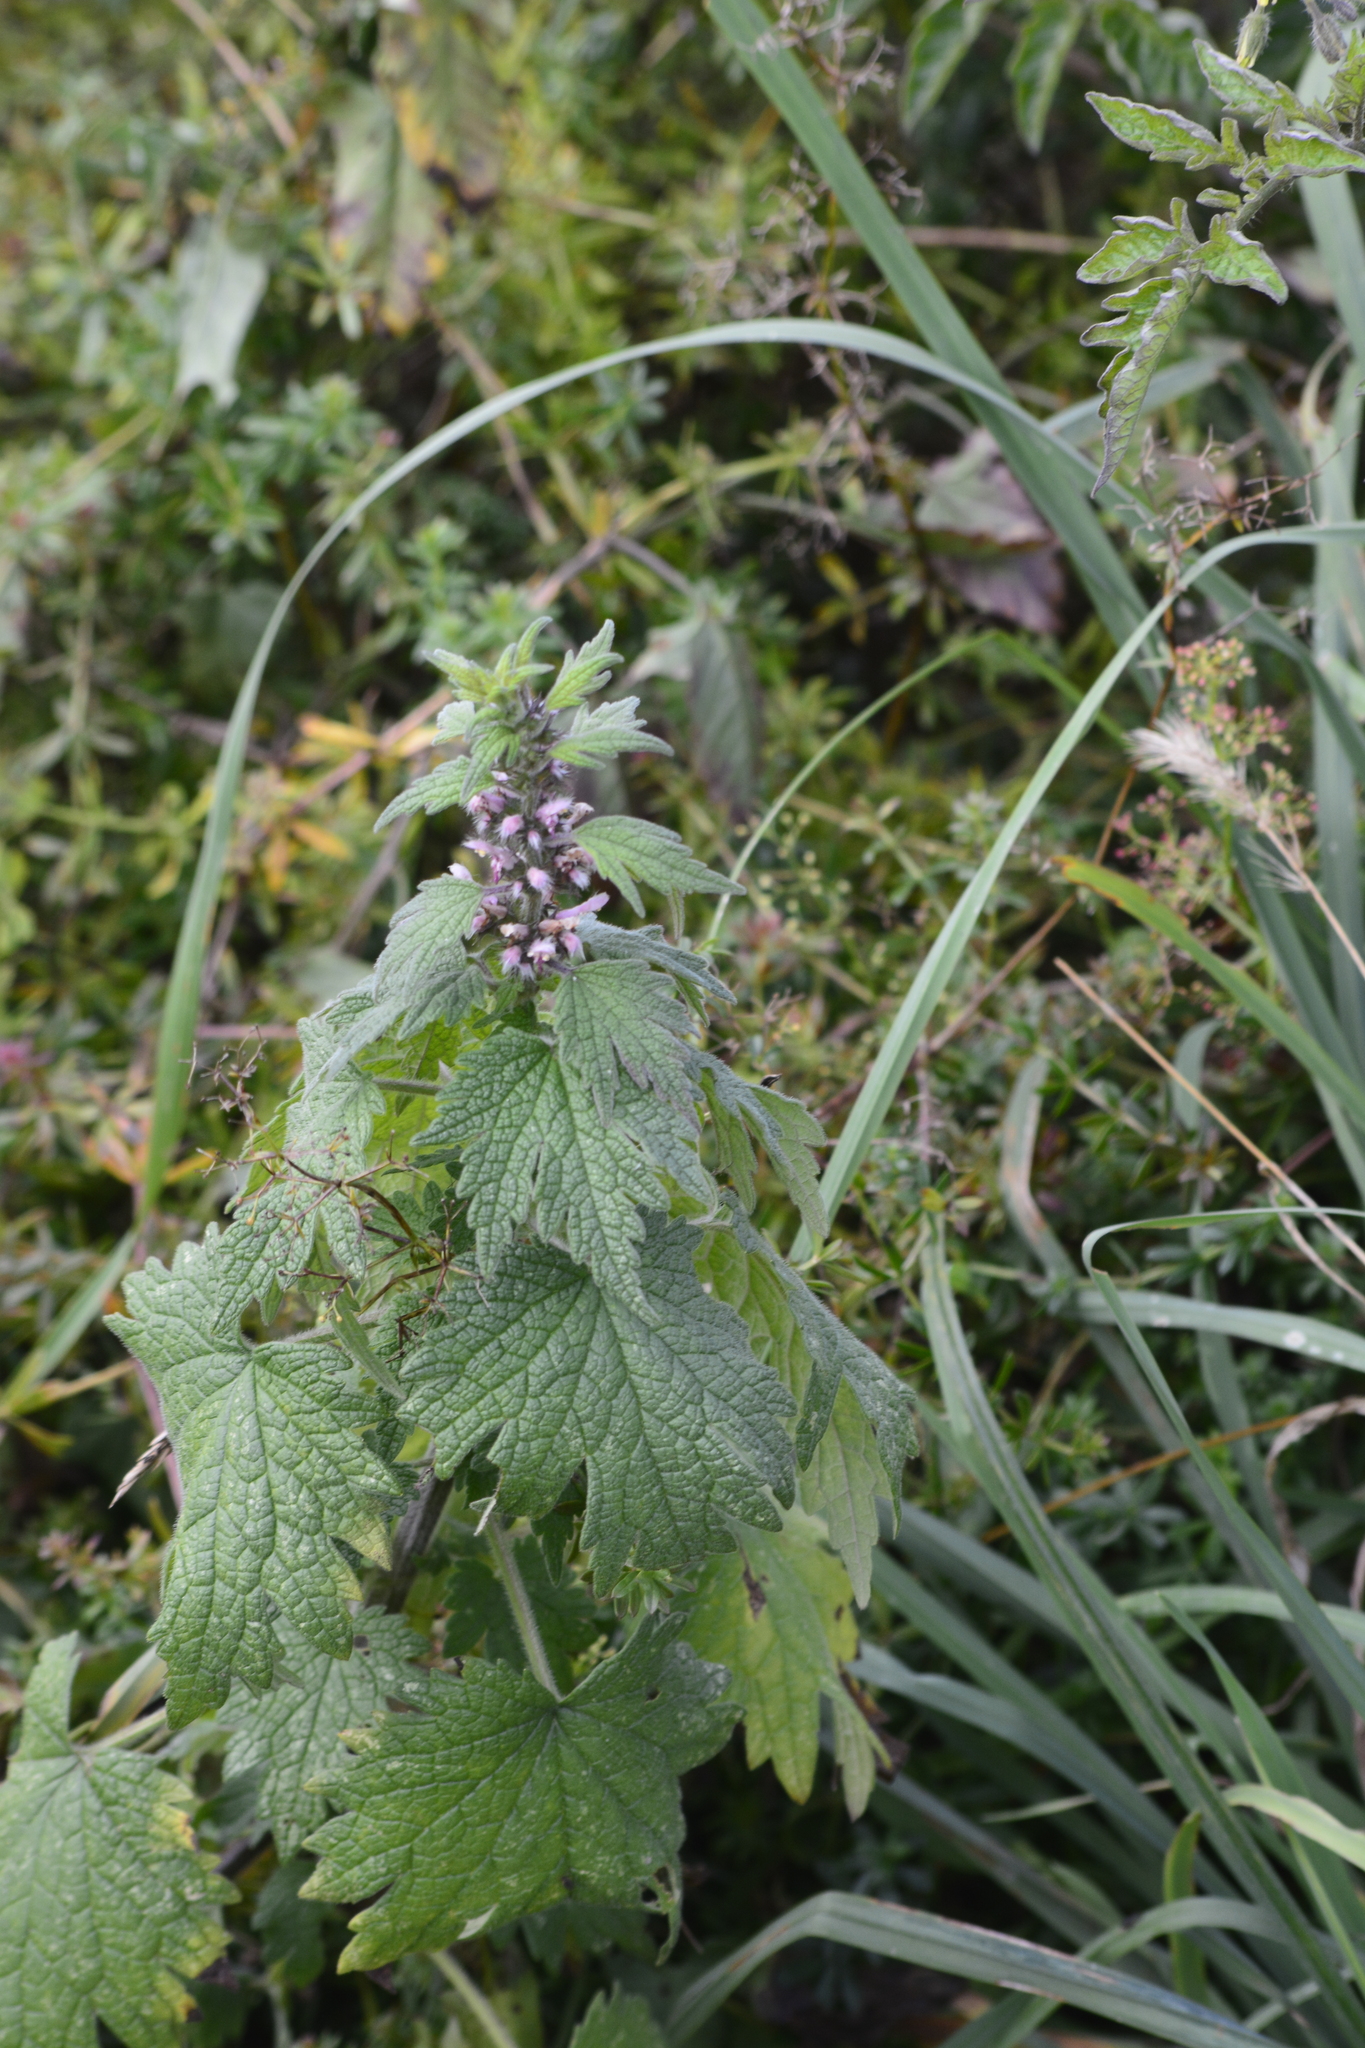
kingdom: Plantae
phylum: Tracheophyta
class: Magnoliopsida
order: Lamiales
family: Lamiaceae
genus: Leonurus
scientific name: Leonurus quinquelobatus
